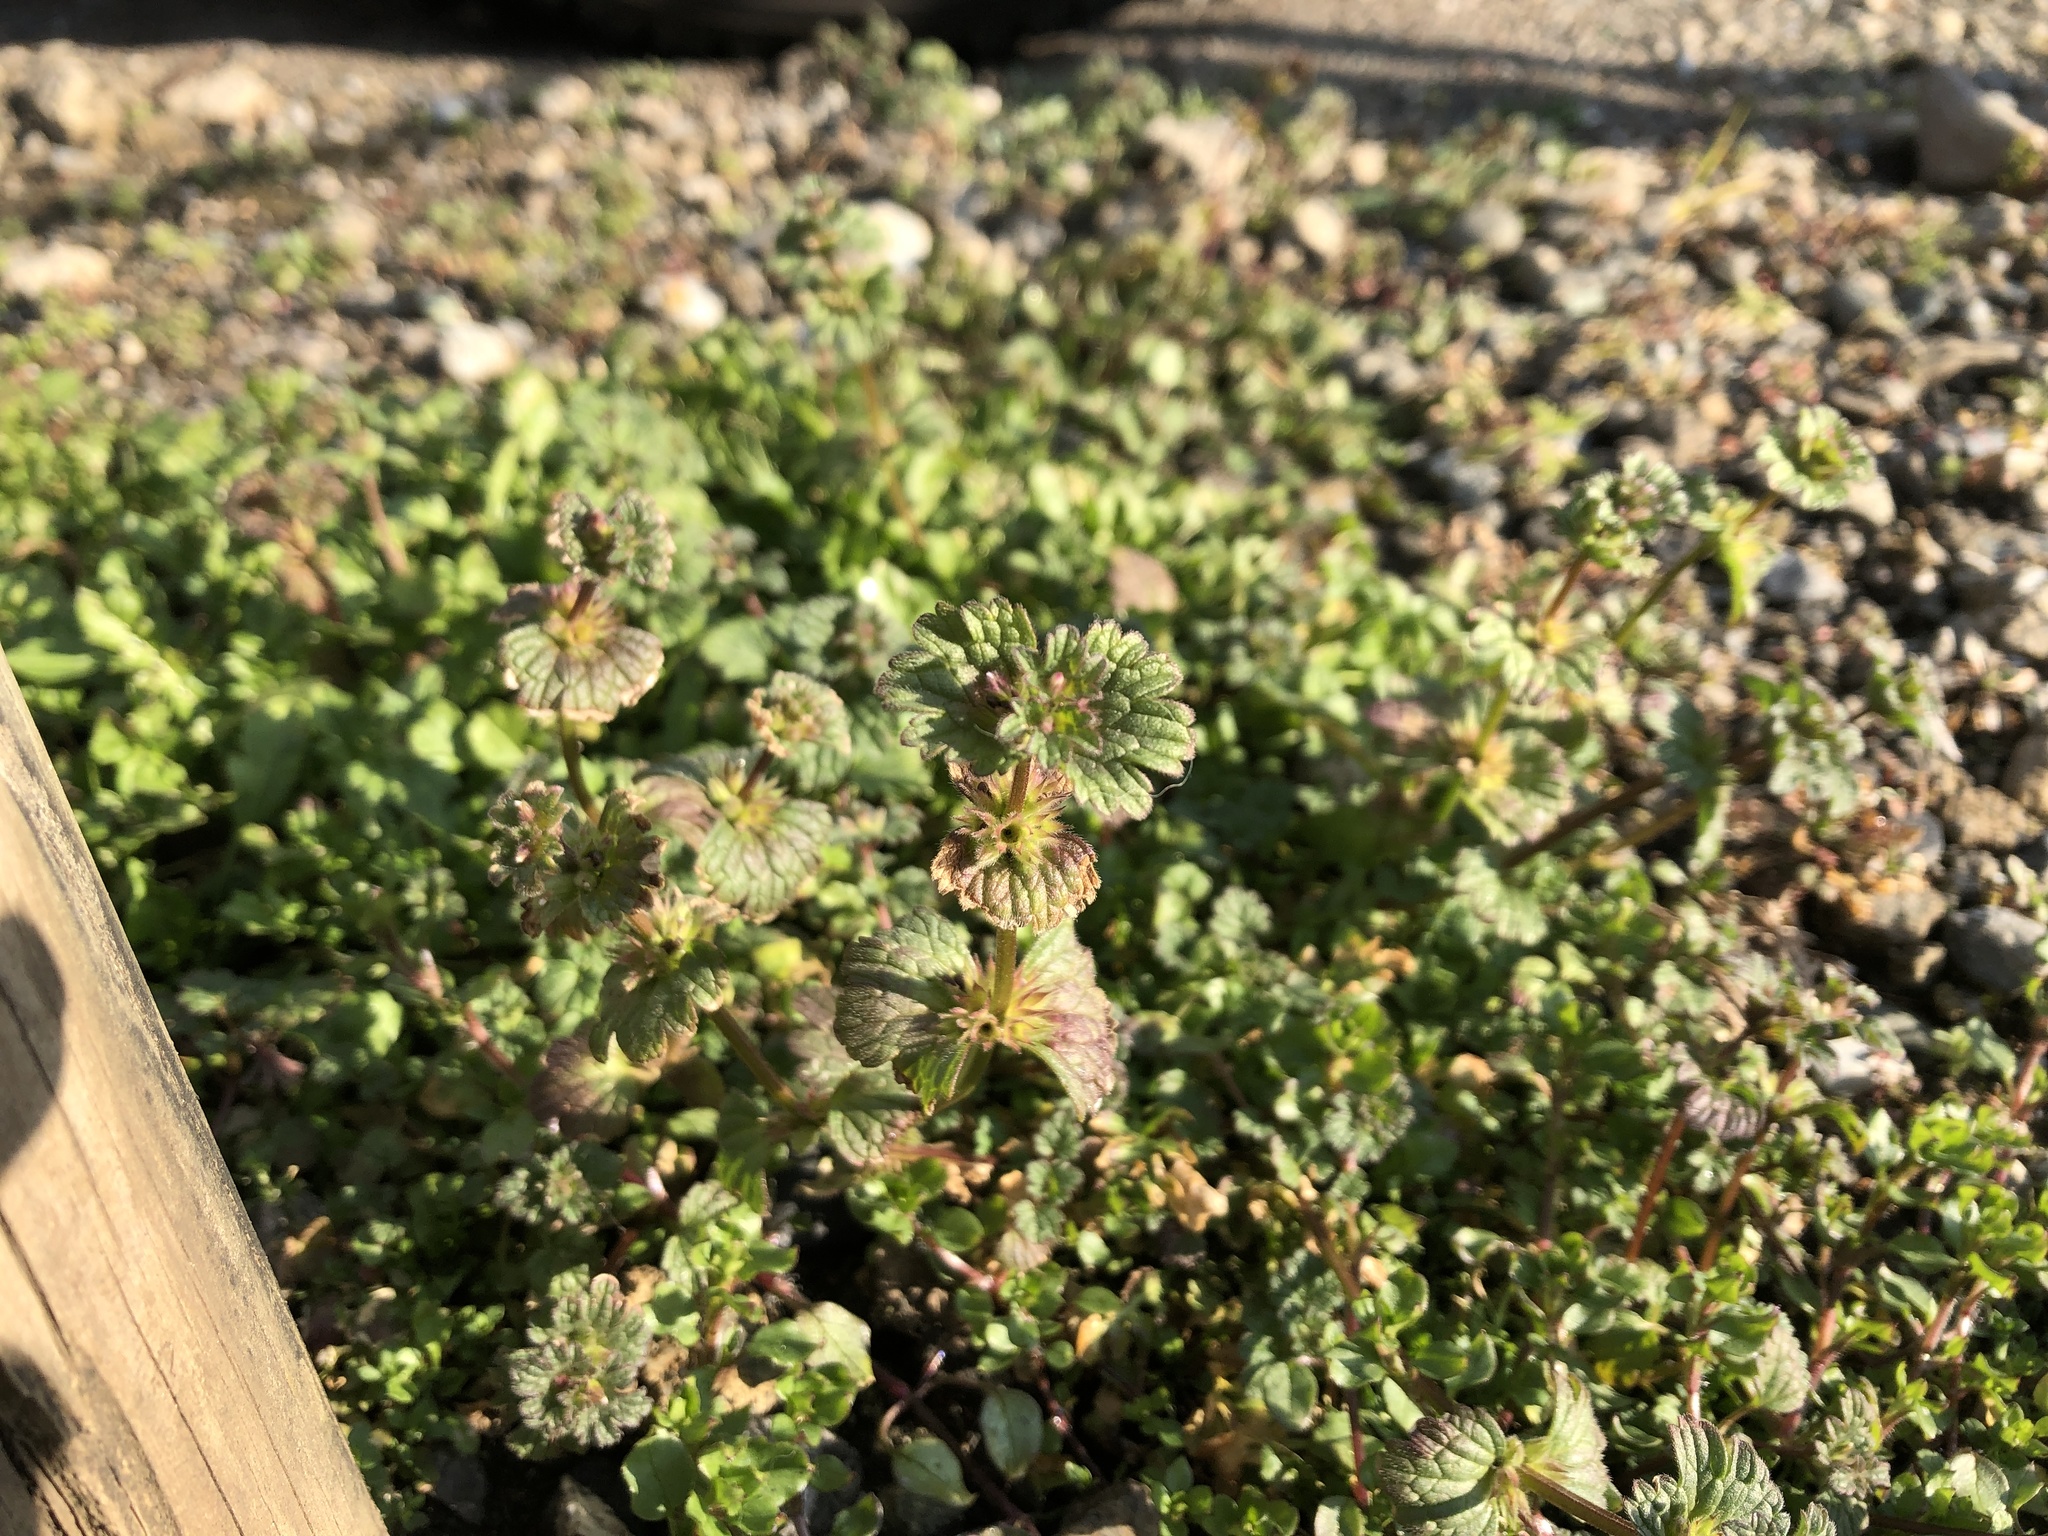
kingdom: Plantae
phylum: Tracheophyta
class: Magnoliopsida
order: Lamiales
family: Lamiaceae
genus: Lamium
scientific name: Lamium amplexicaule
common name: Henbit dead-nettle
